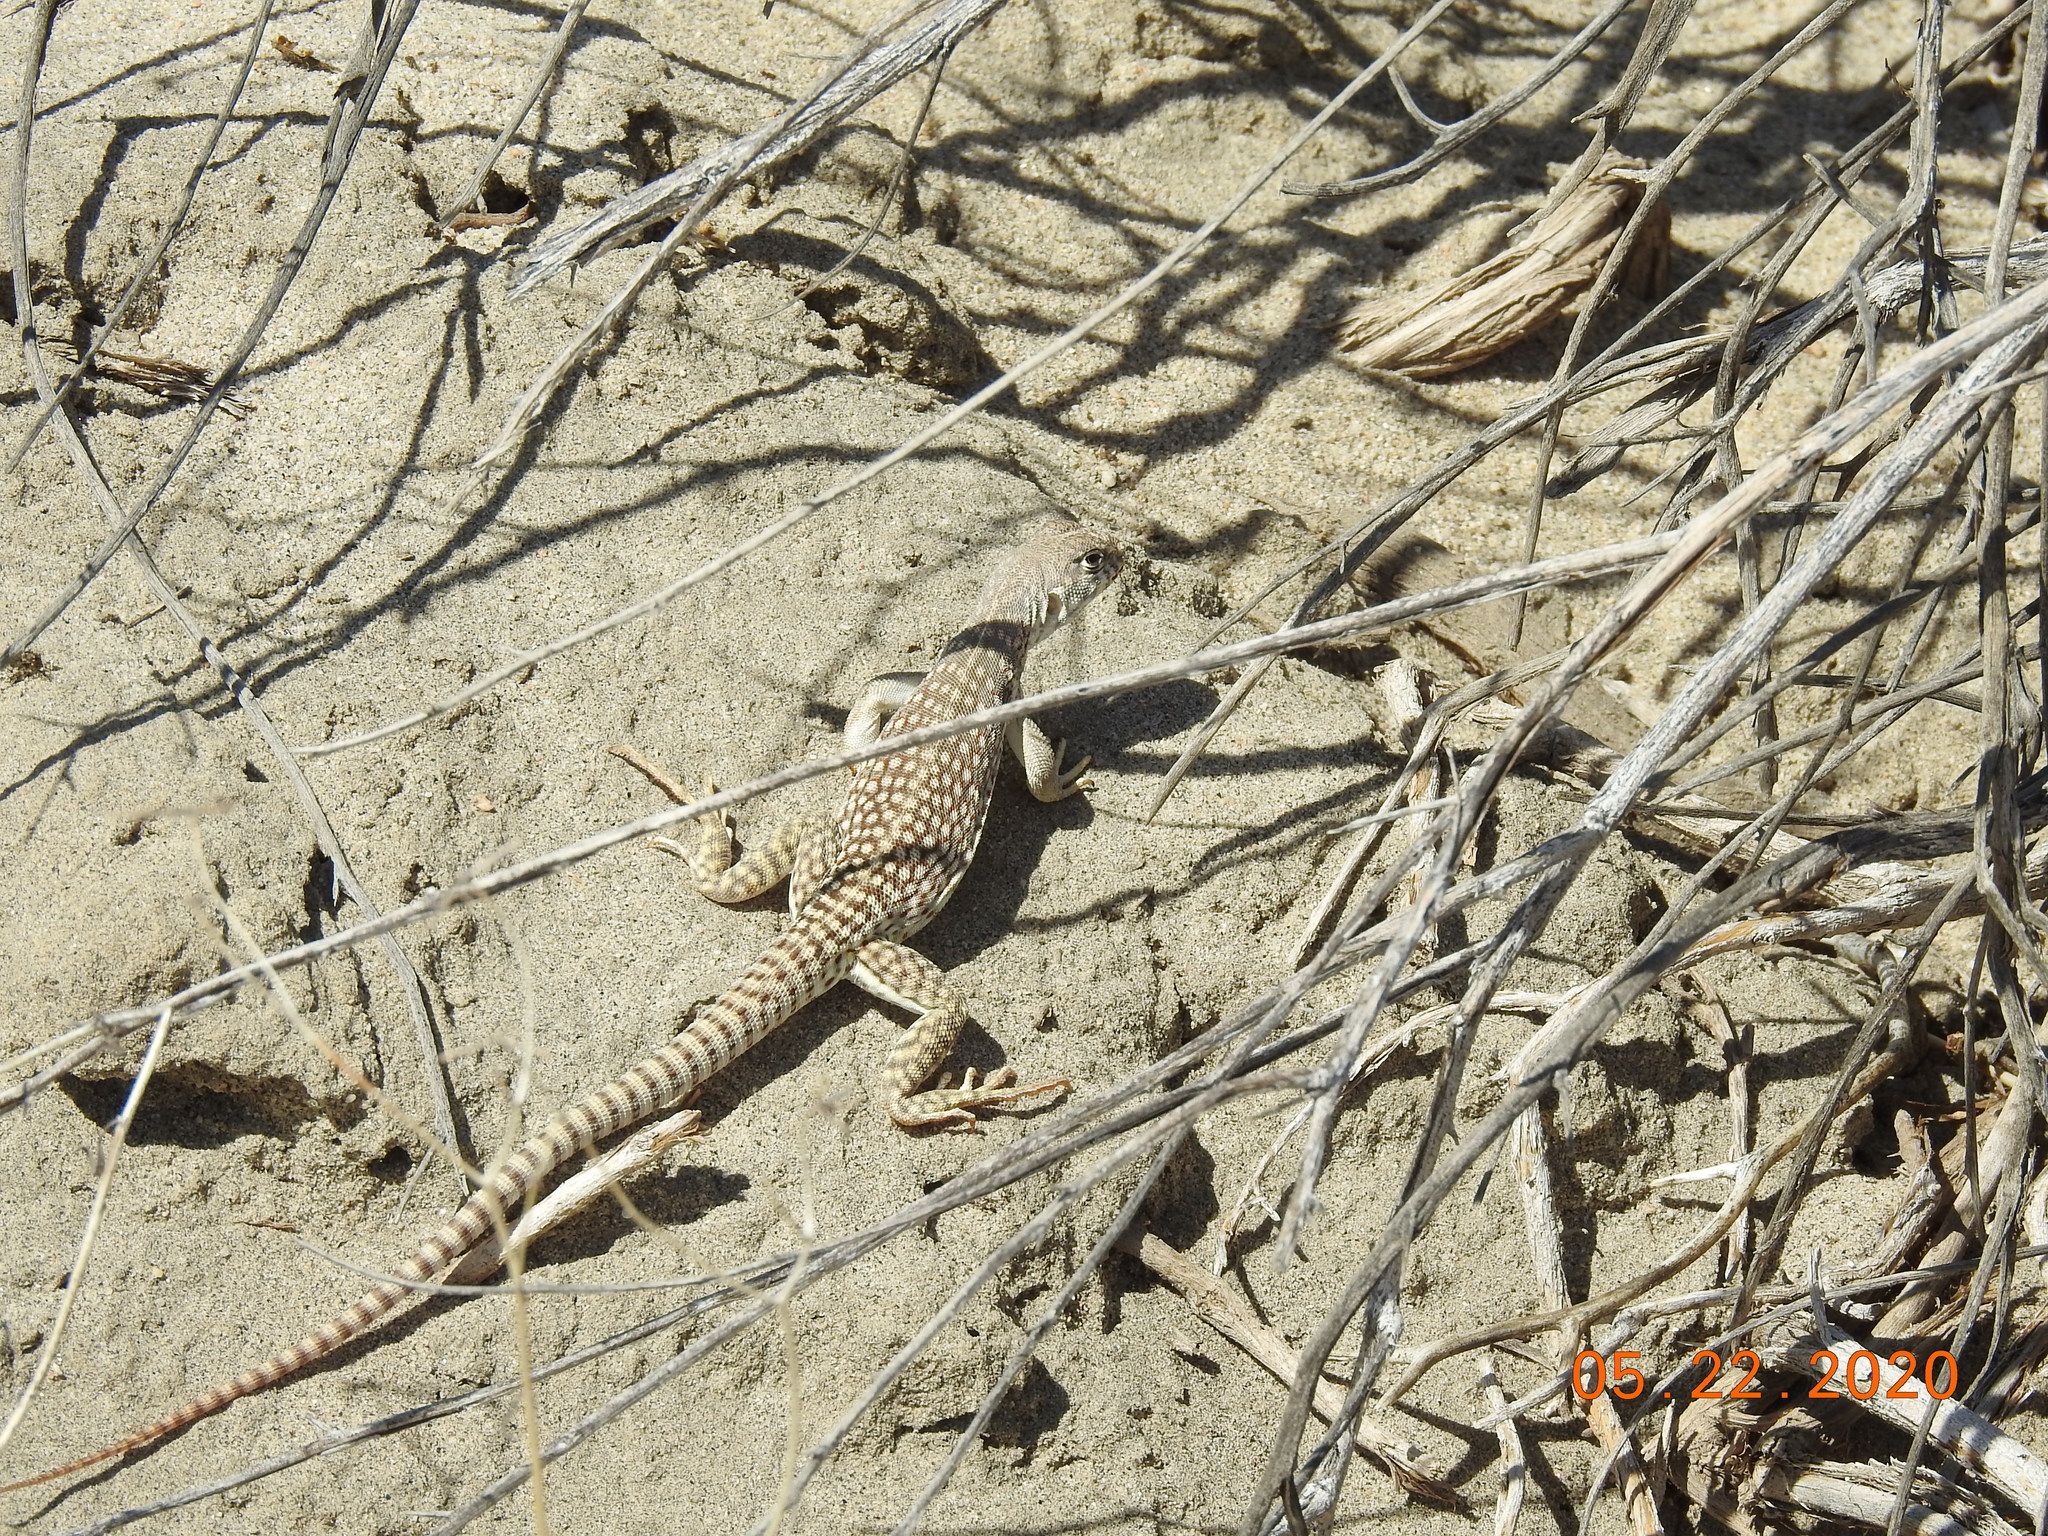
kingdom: Animalia
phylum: Chordata
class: Squamata
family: Iguanidae
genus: Dipsosaurus
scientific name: Dipsosaurus dorsalis
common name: Desert iguana
